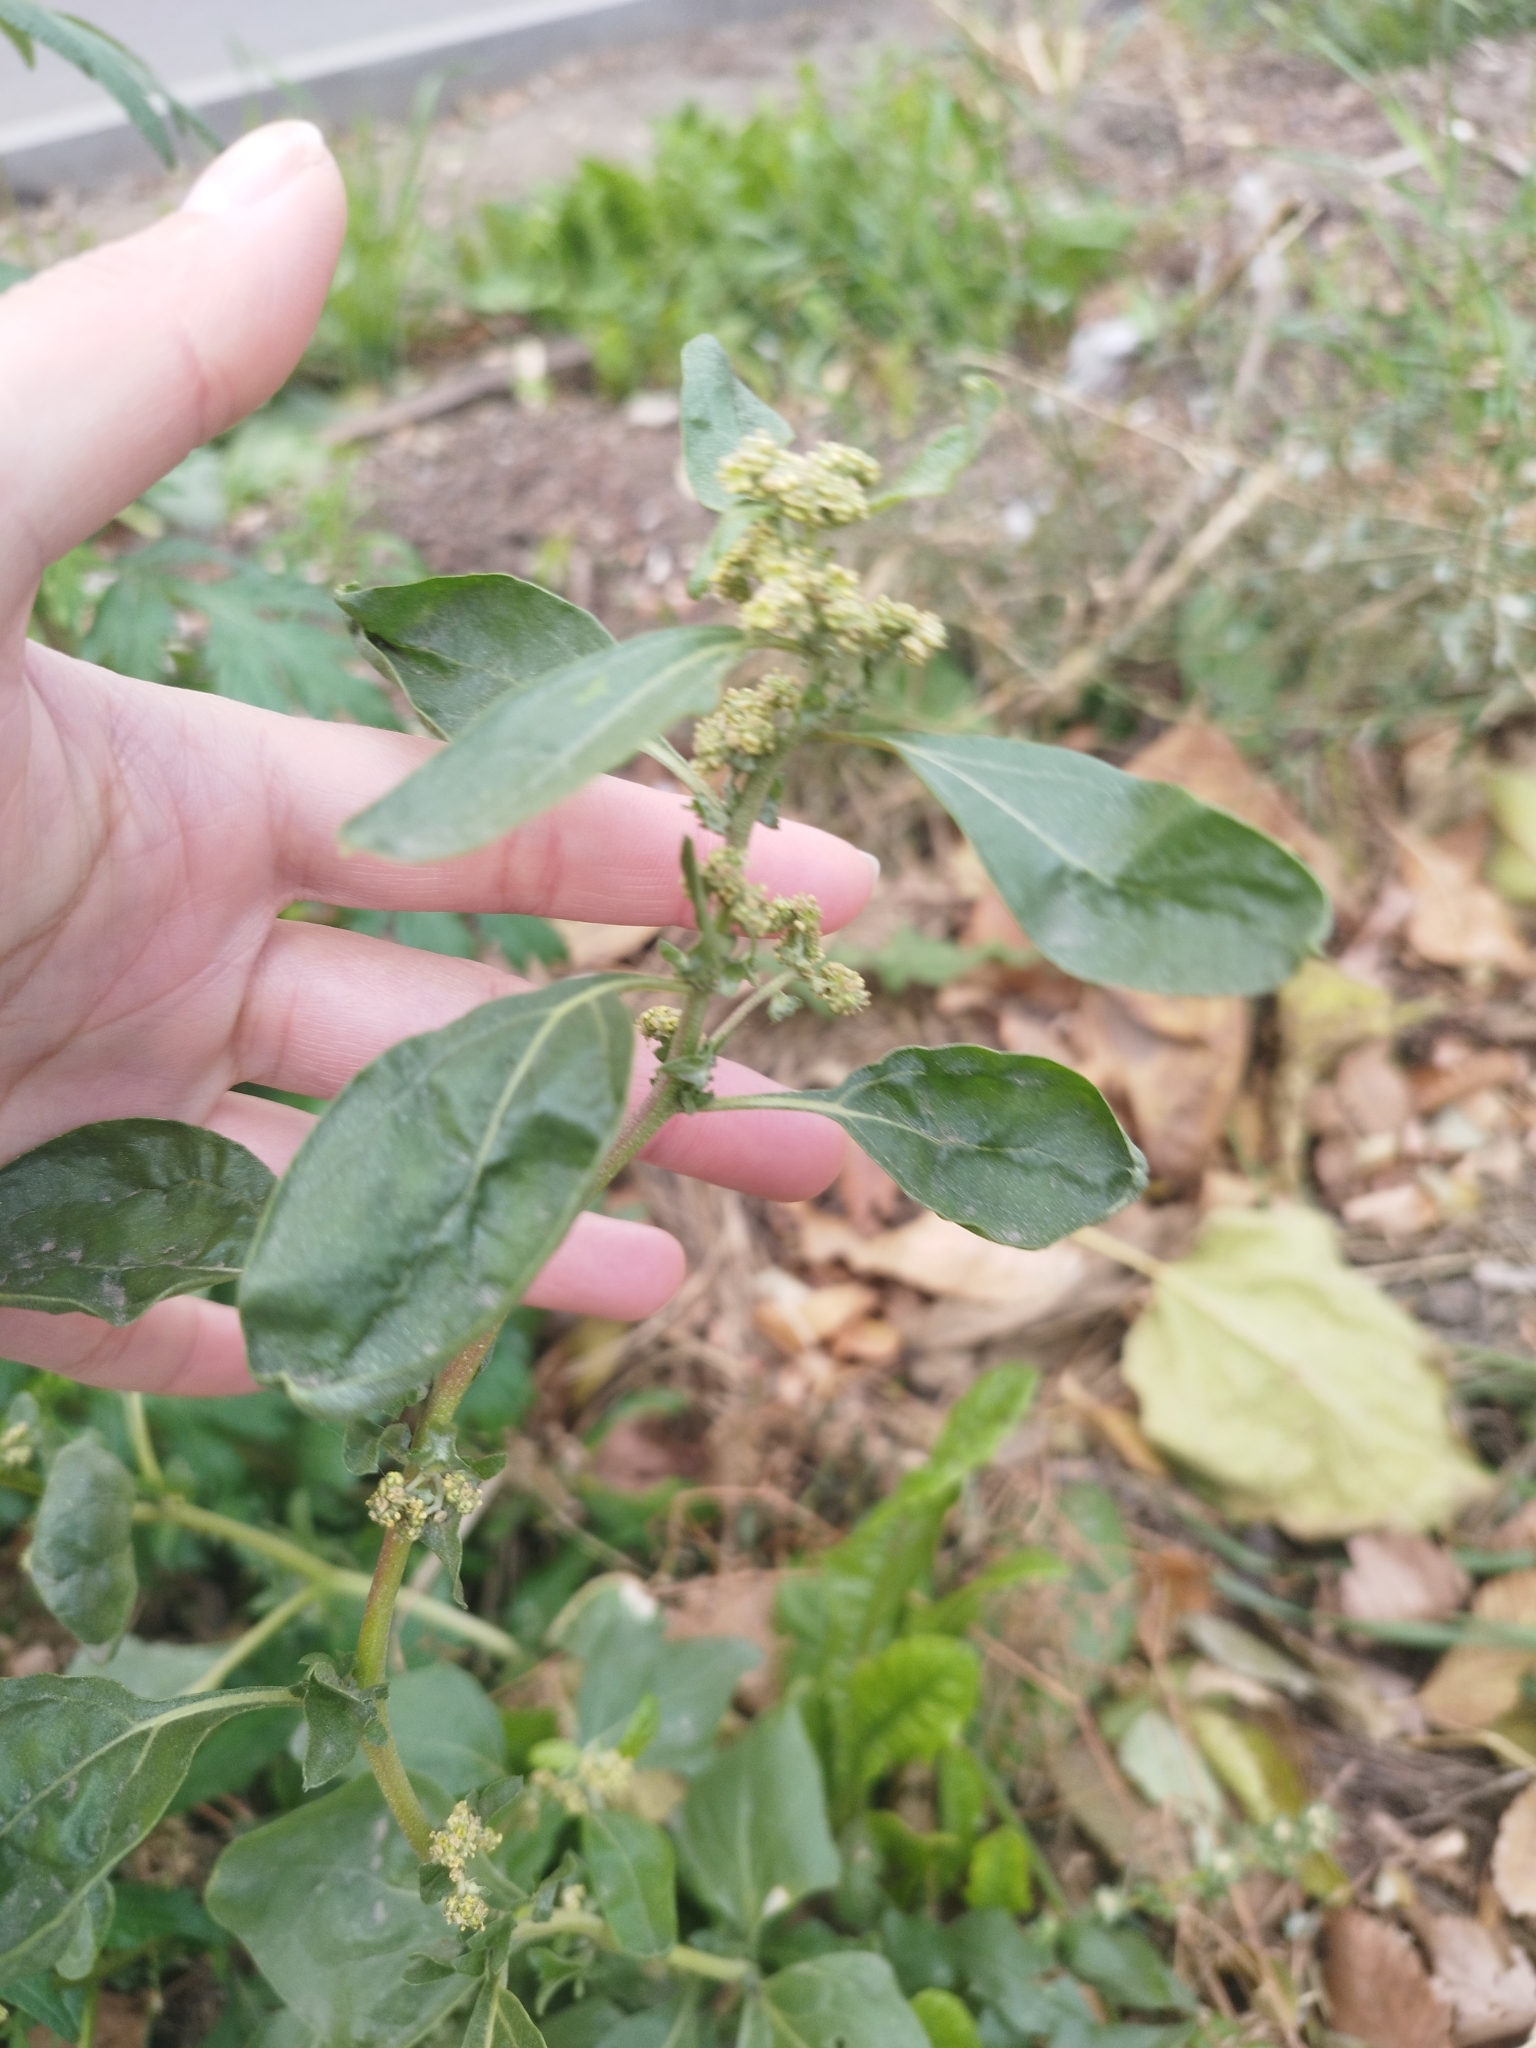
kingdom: Plantae
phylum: Tracheophyta
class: Magnoliopsida
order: Caryophyllales
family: Amaranthaceae
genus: Atriplex
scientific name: Atriplex tatarica
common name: Tatarian orache
